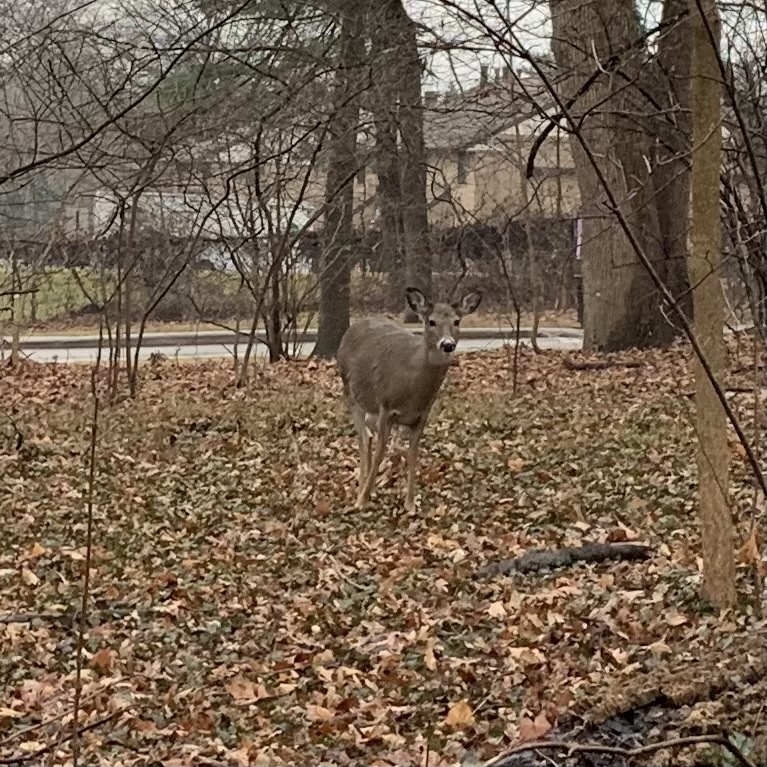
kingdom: Animalia
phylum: Chordata
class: Mammalia
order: Artiodactyla
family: Cervidae
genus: Odocoileus
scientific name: Odocoileus virginianus
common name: White-tailed deer
